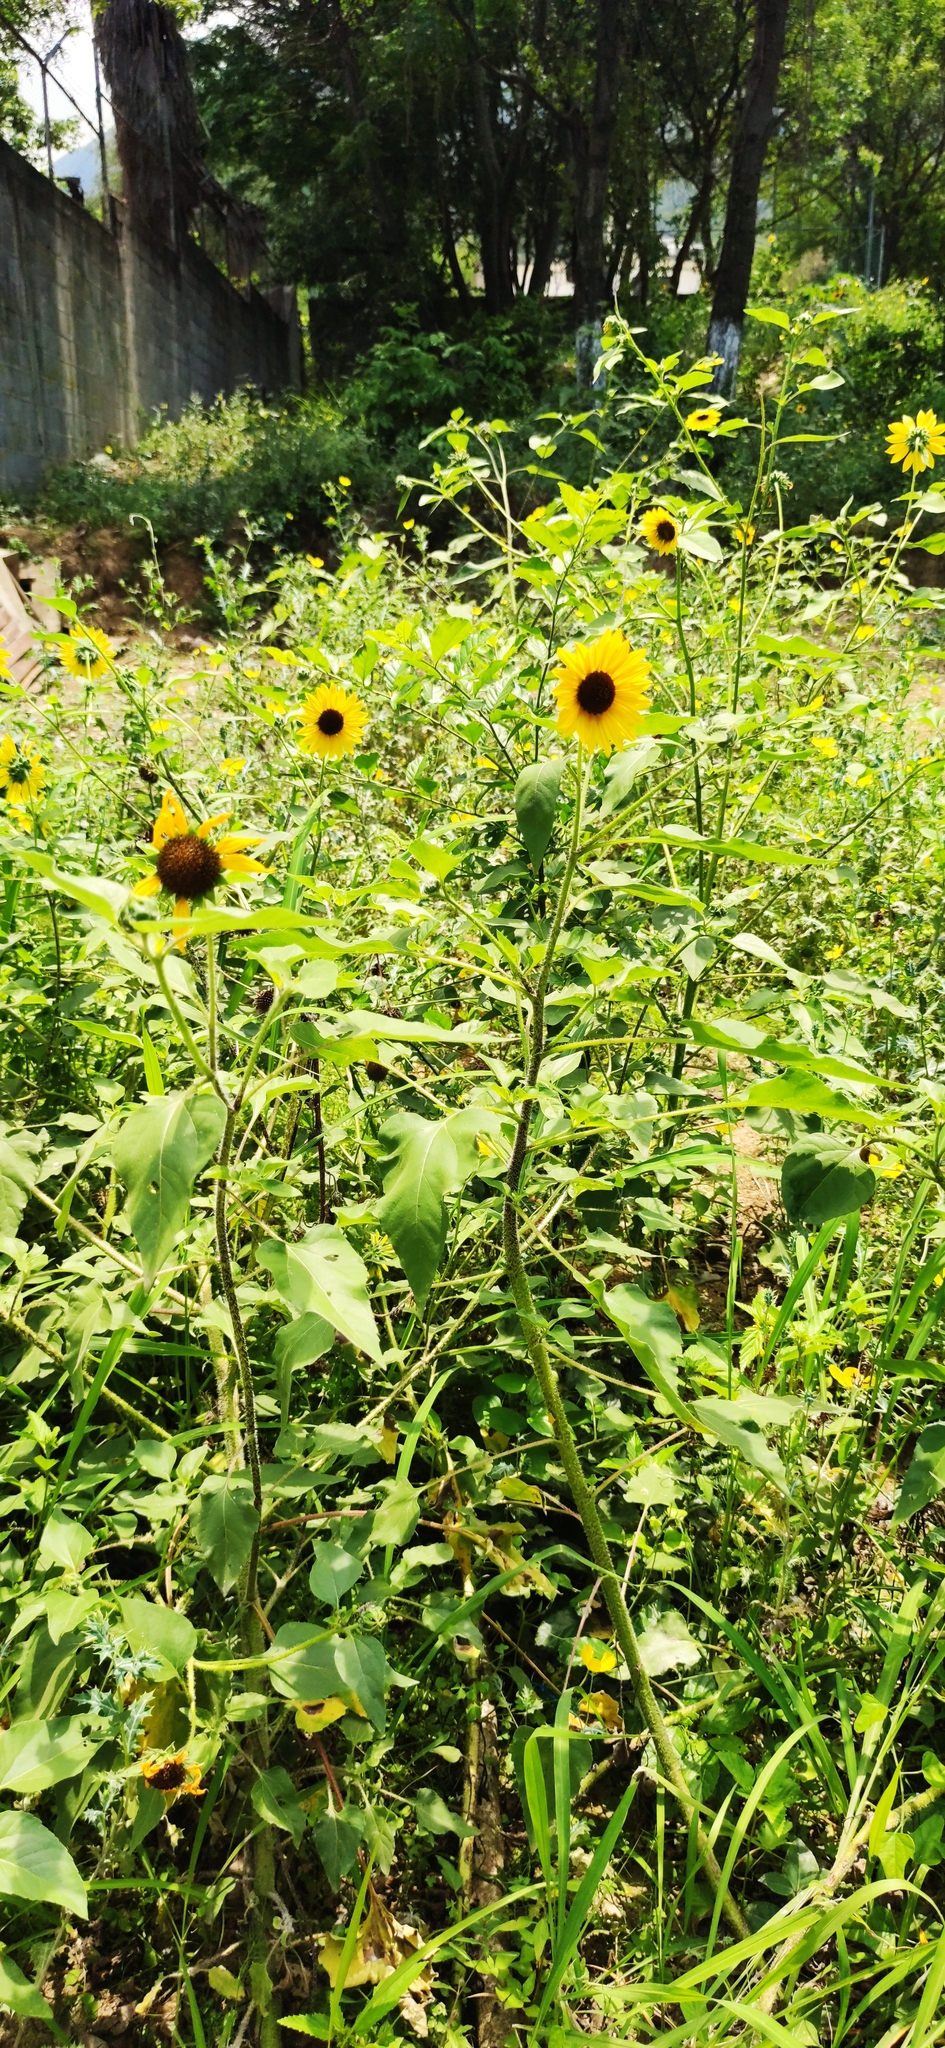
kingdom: Plantae
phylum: Tracheophyta
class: Magnoliopsida
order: Asterales
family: Asteraceae
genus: Helianthus
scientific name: Helianthus annuus
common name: Sunflower
